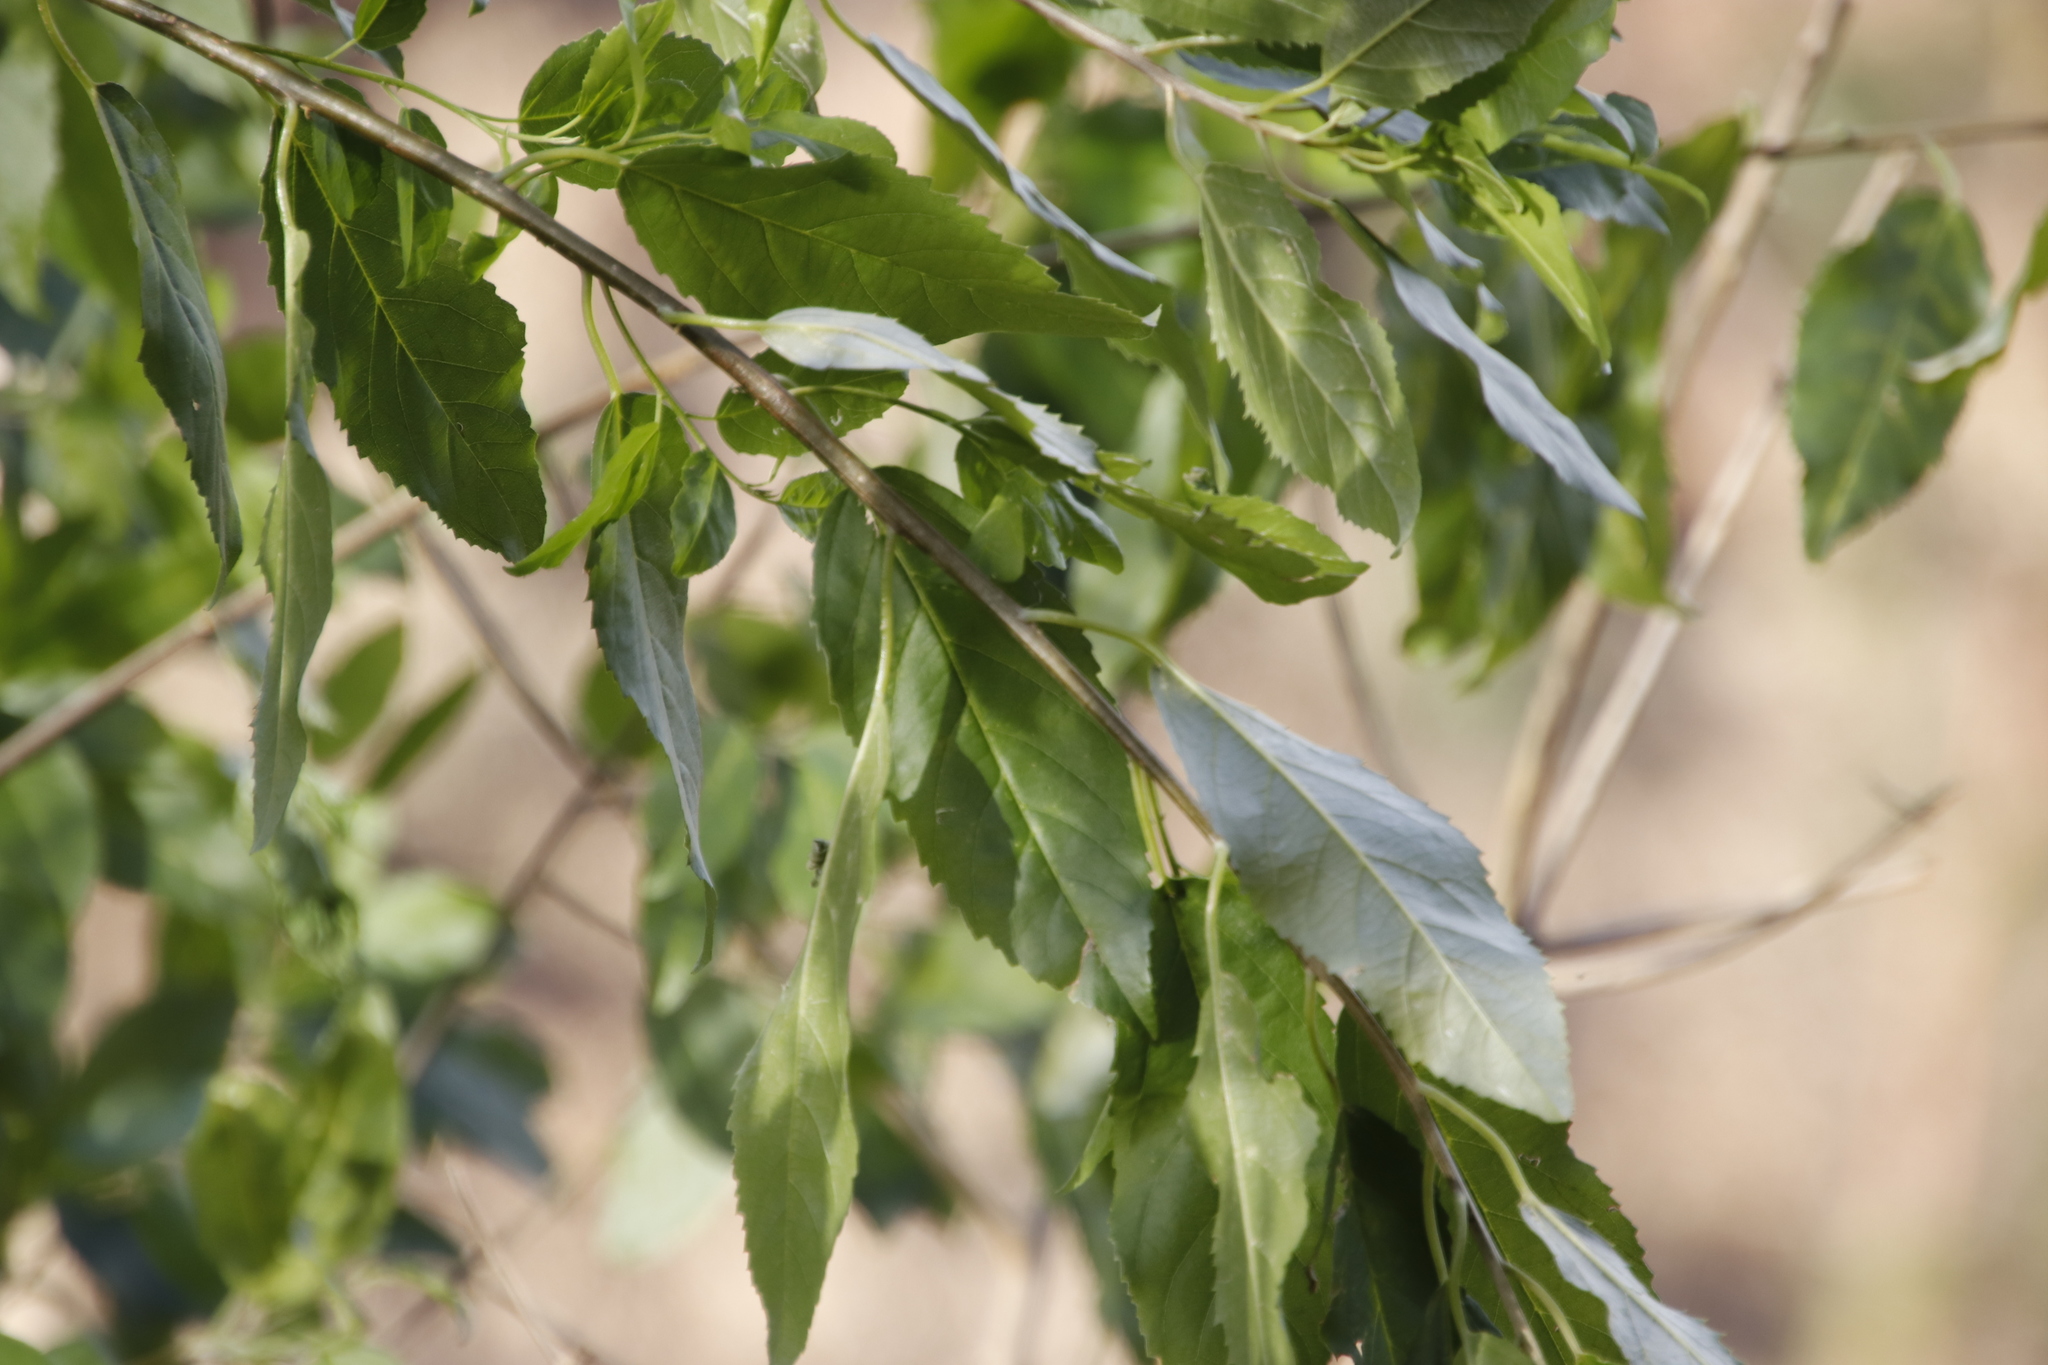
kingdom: Plantae
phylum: Tracheophyta
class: Magnoliopsida
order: Malpighiales
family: Achariaceae
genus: Kiggelaria
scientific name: Kiggelaria africana
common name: Wild peach
